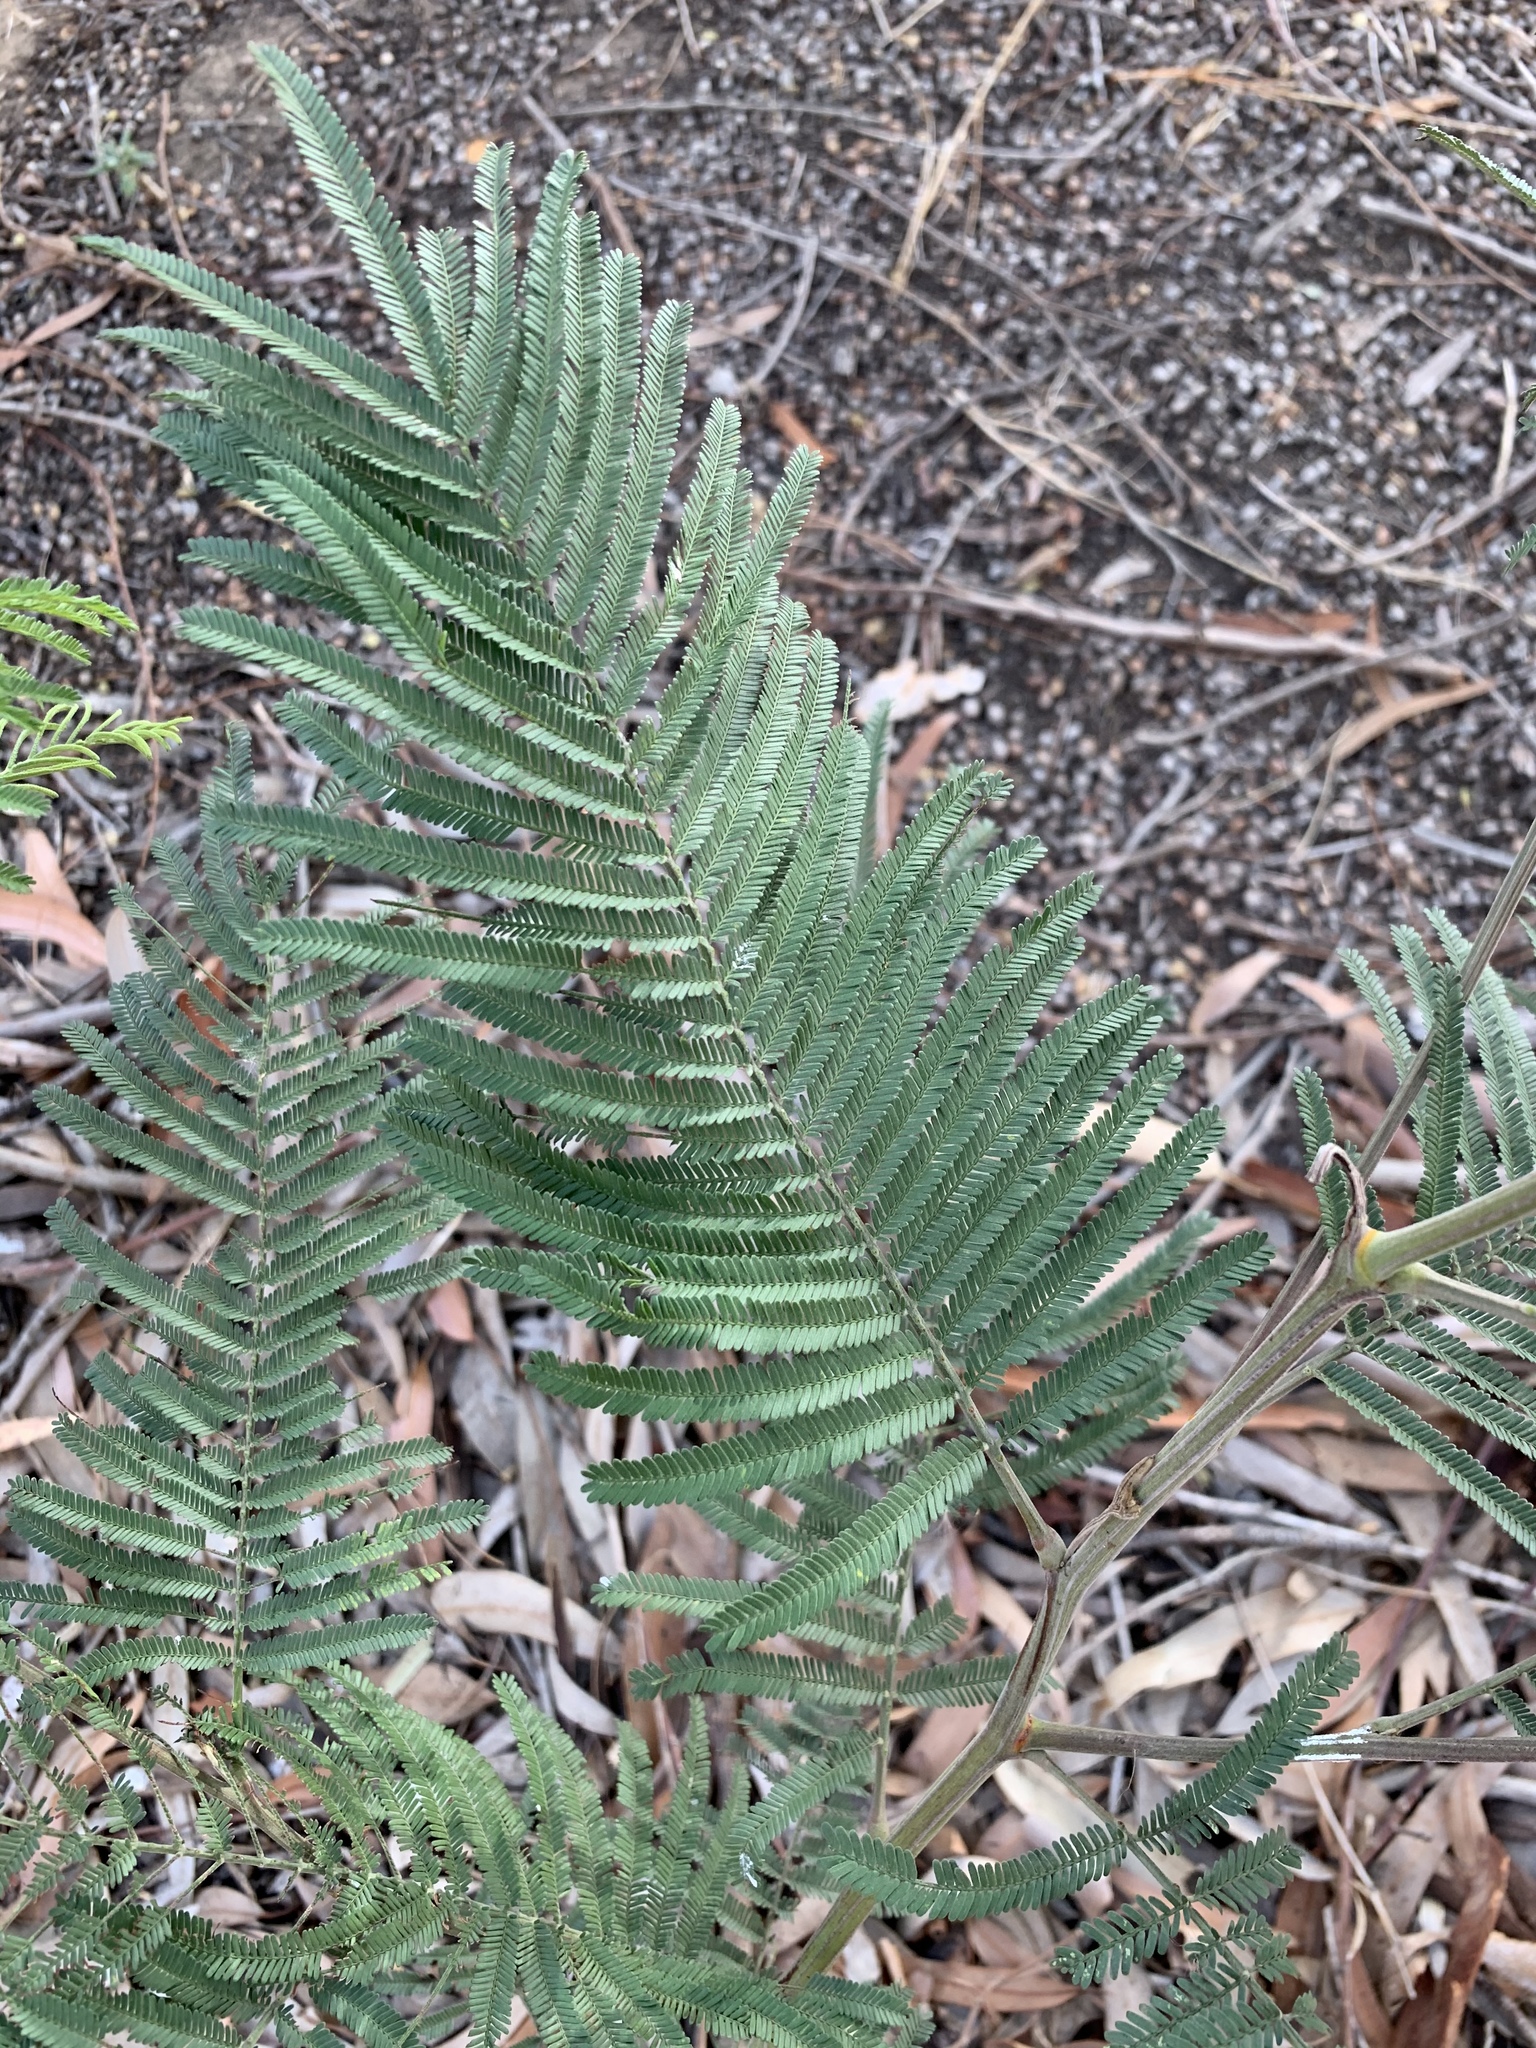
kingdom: Plantae
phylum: Tracheophyta
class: Magnoliopsida
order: Fabales
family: Fabaceae
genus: Acacia
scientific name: Acacia mearnsii
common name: Black wattle
